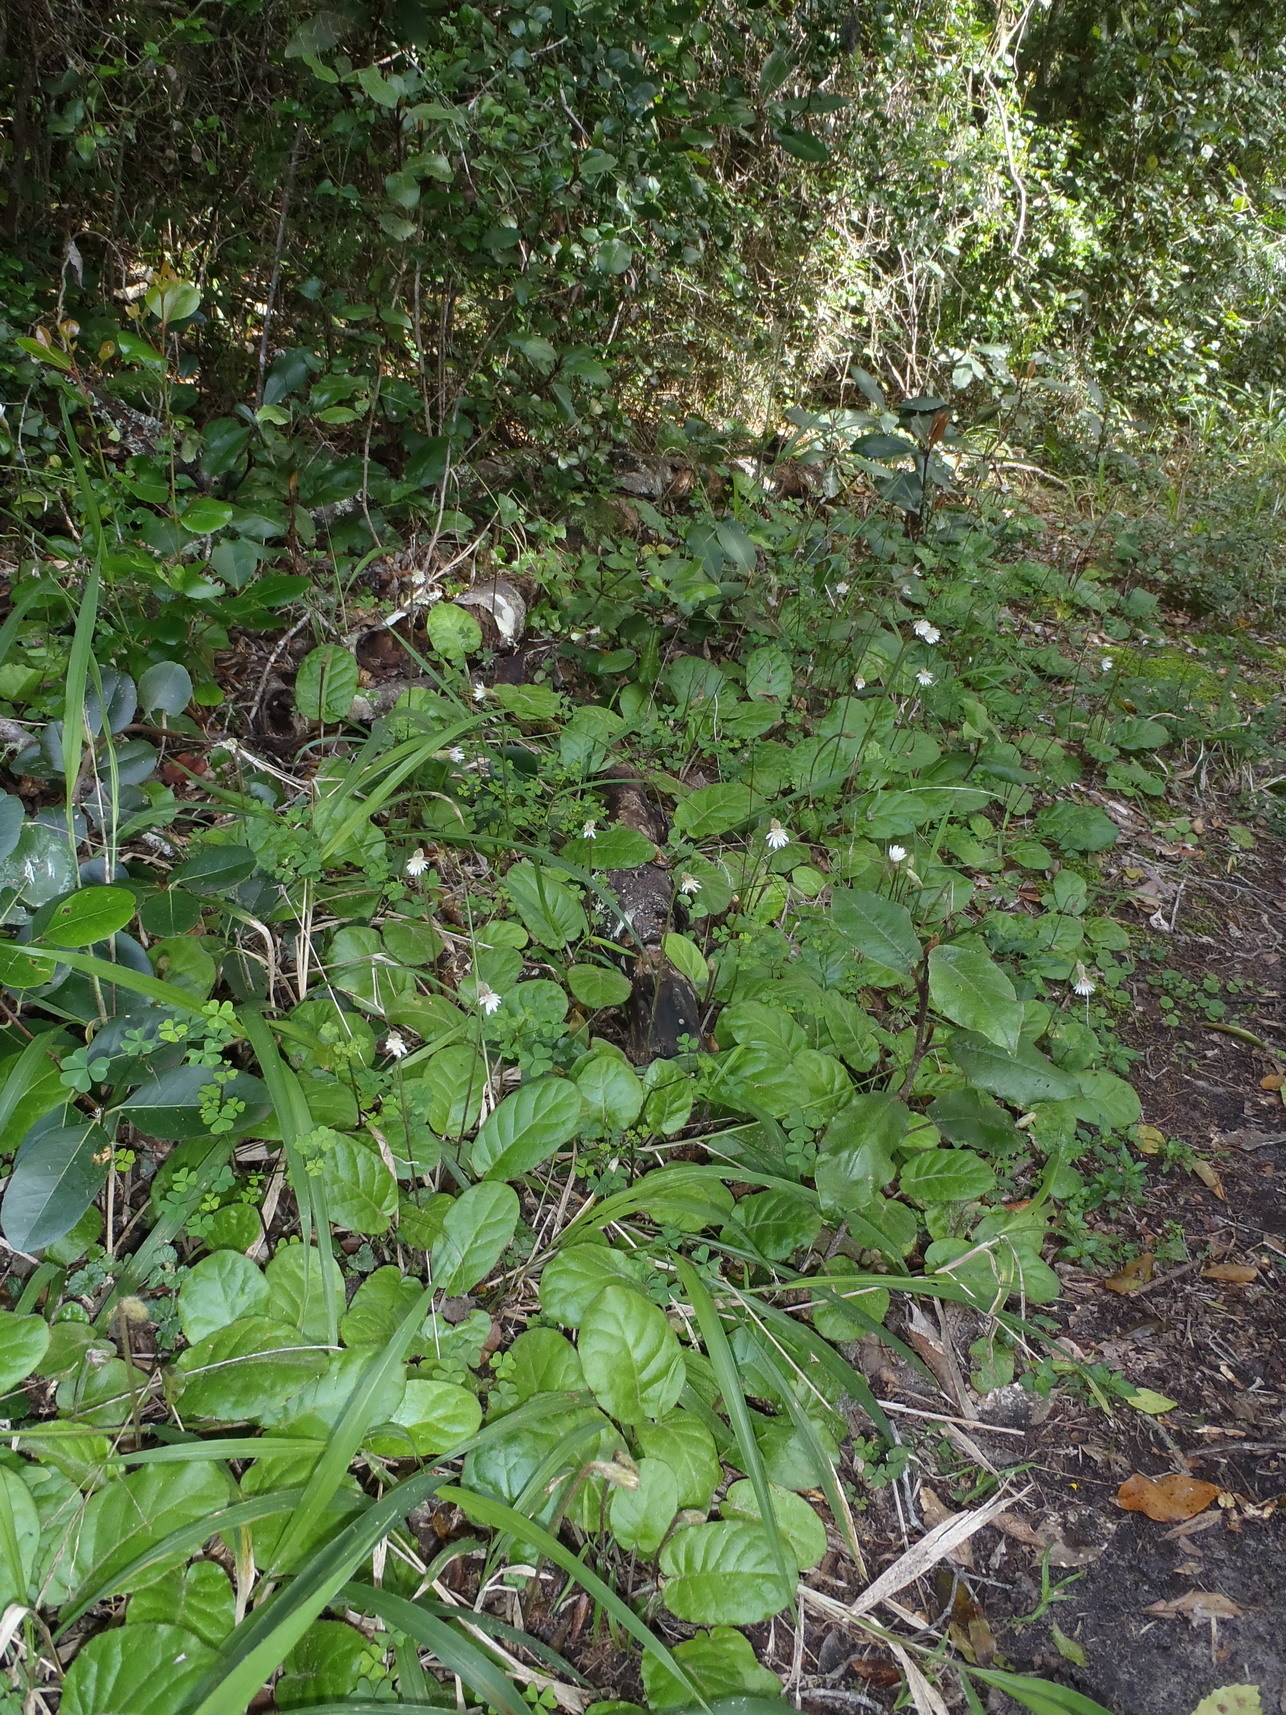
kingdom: Plantae
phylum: Tracheophyta
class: Magnoliopsida
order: Asterales
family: Asteraceae
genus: Piloselloides
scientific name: Piloselloides cordata
